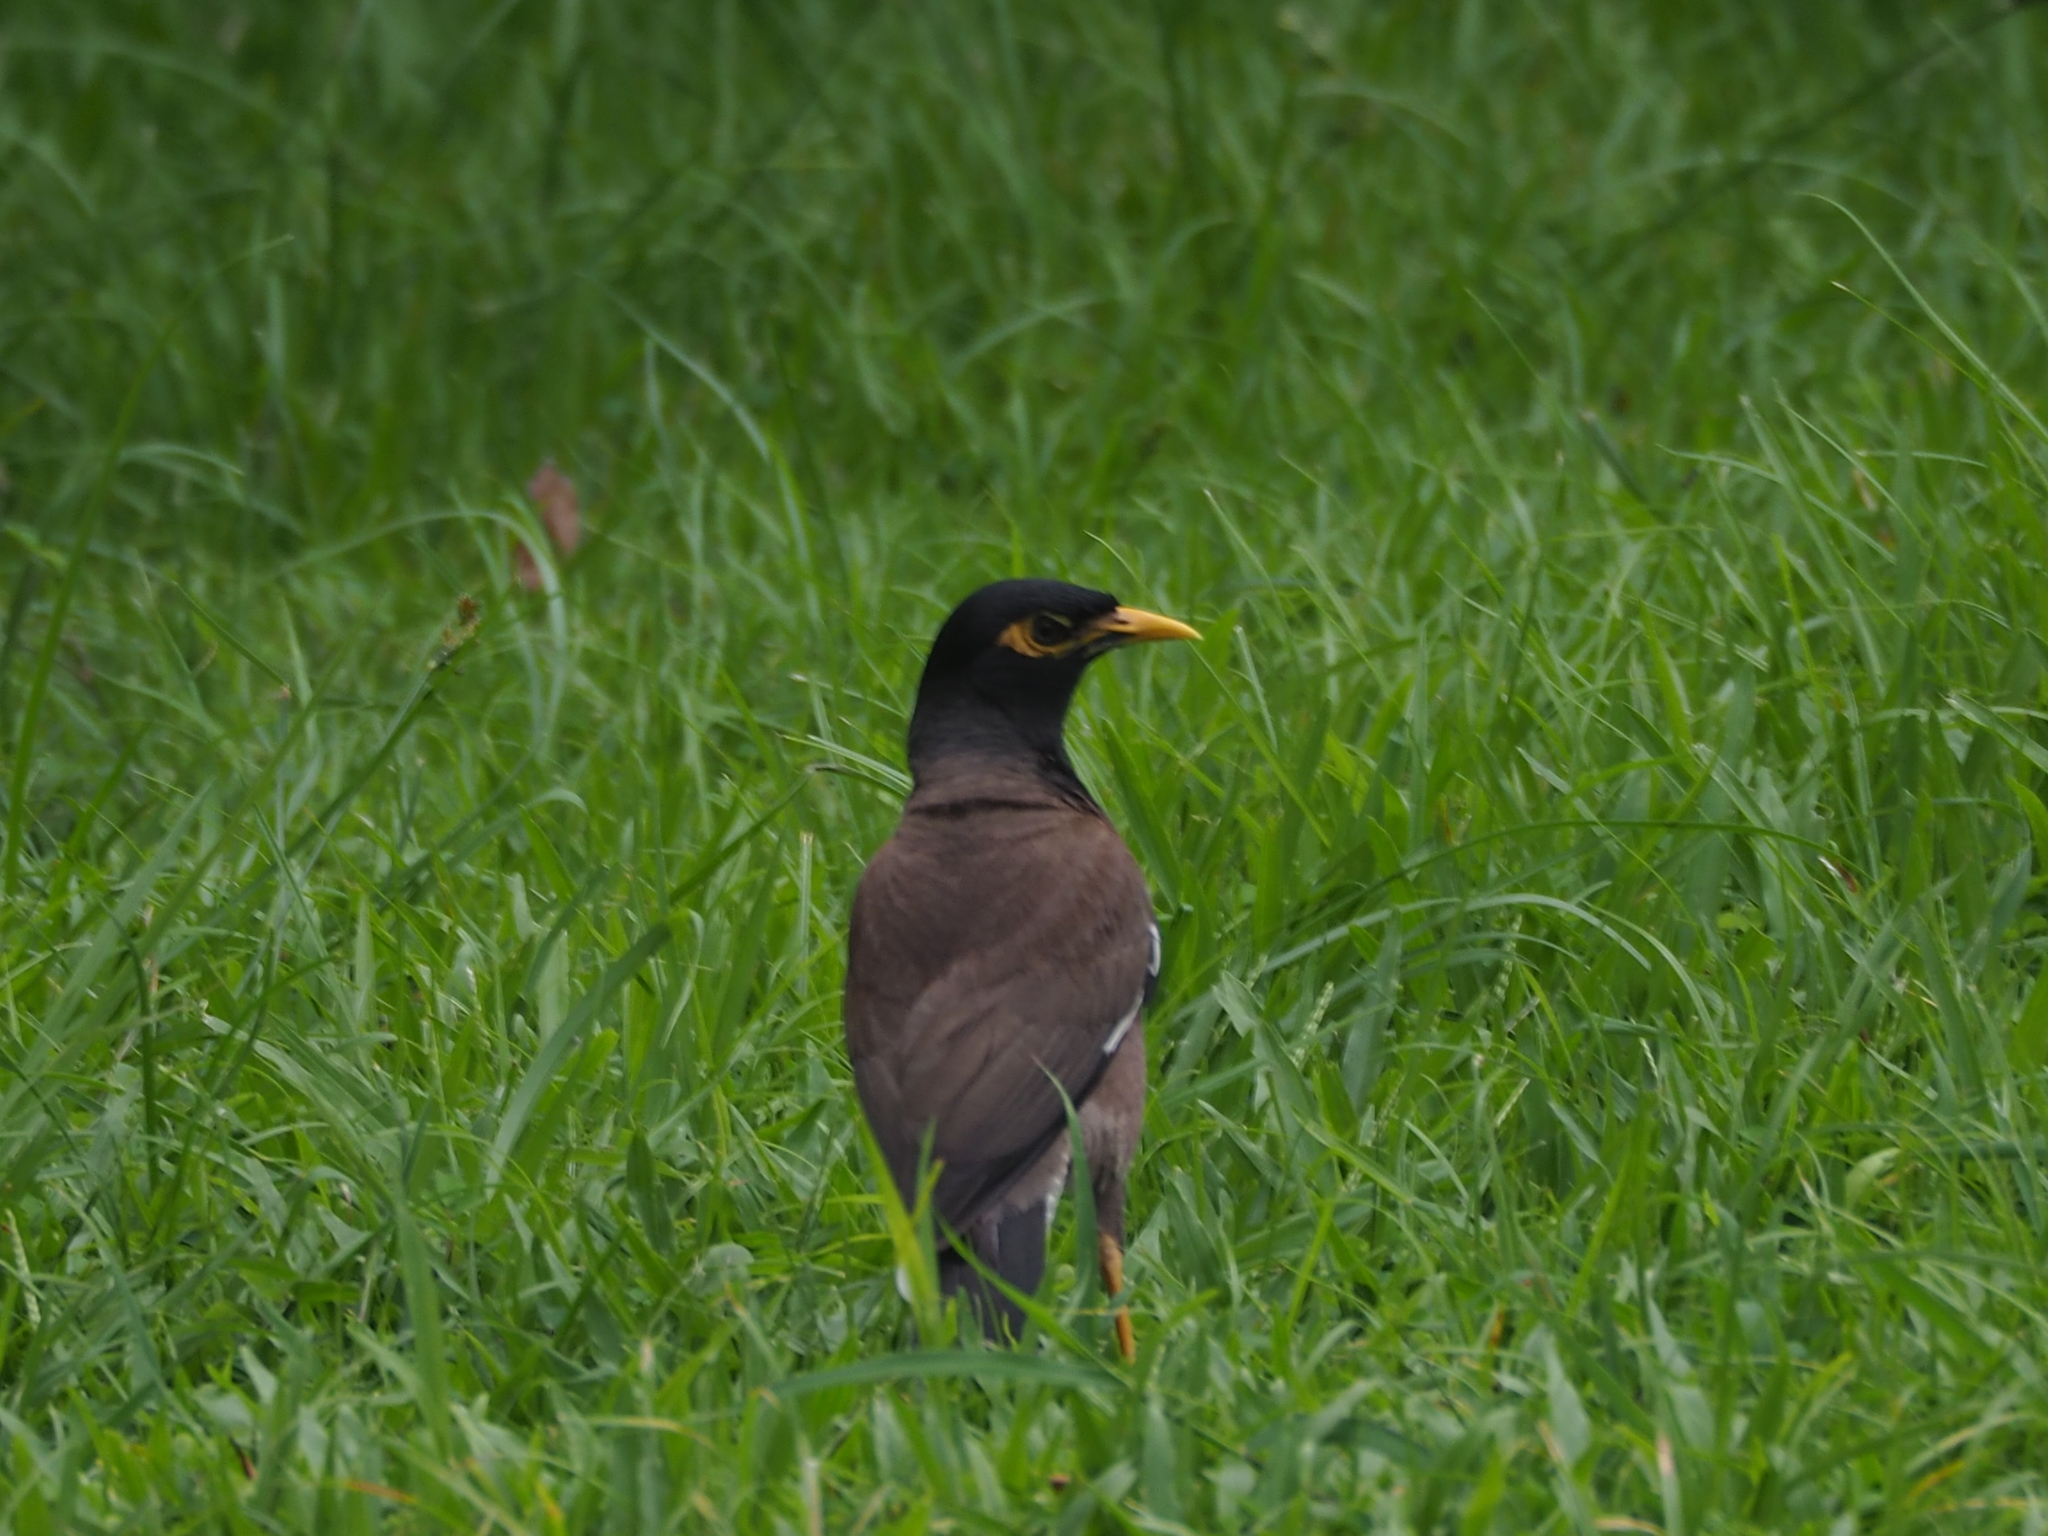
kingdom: Animalia
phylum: Chordata
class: Aves
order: Passeriformes
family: Sturnidae
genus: Acridotheres
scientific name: Acridotheres tristis
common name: Common myna
